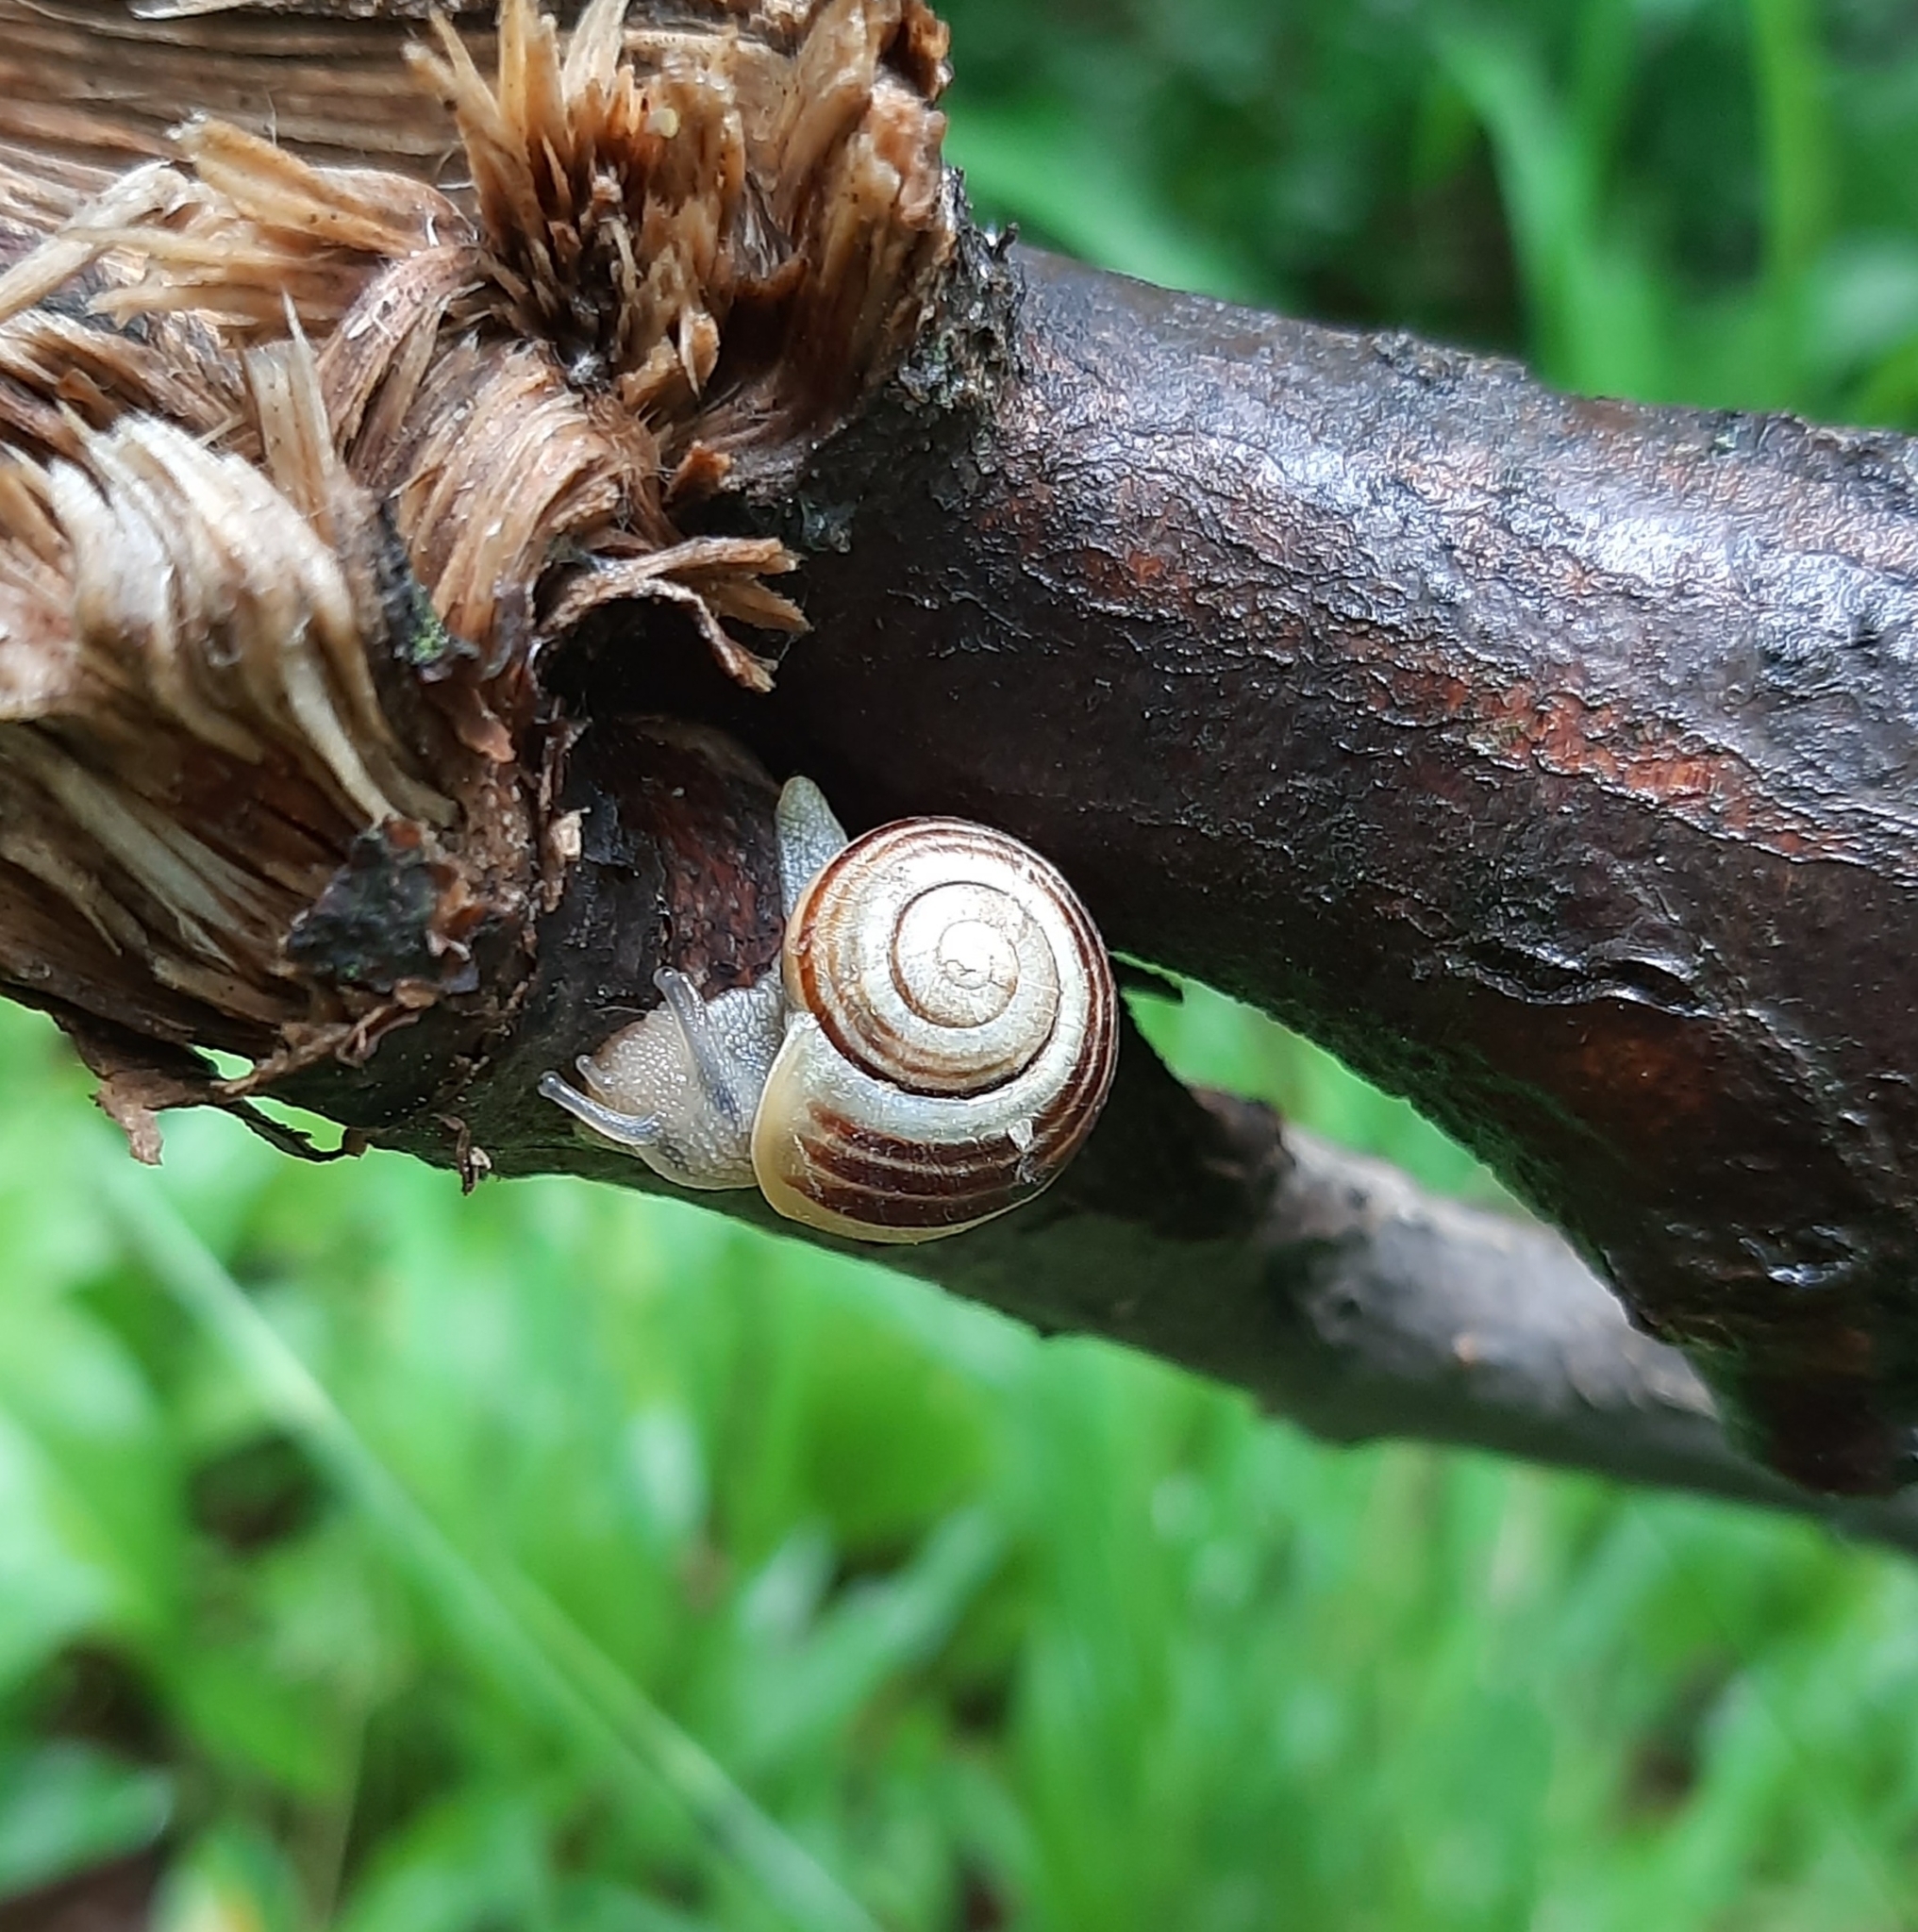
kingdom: Animalia
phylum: Mollusca
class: Gastropoda
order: Stylommatophora
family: Helicidae
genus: Cepaea
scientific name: Cepaea hortensis
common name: White-lip gardensnail
